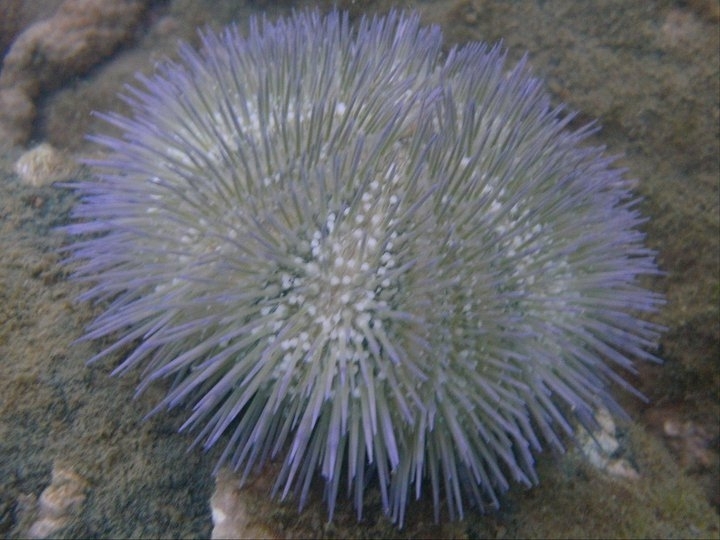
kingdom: Animalia
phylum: Echinodermata
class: Echinoidea
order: Camarodonta
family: Toxopneustidae
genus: Lytechinus
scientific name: Lytechinus variegatus
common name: Variegated urchin
